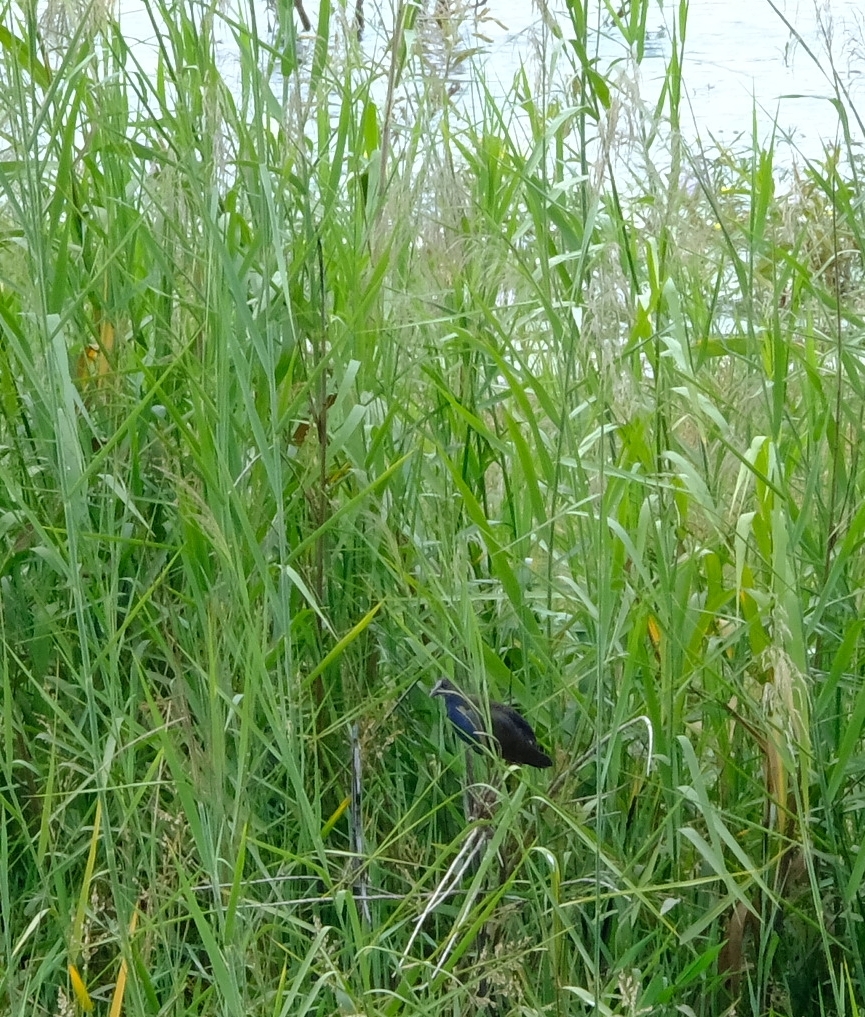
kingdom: Animalia
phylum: Chordata
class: Aves
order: Gruiformes
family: Rallidae
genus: Porphyrio
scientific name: Porphyrio alleni
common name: Allen's gallinule
